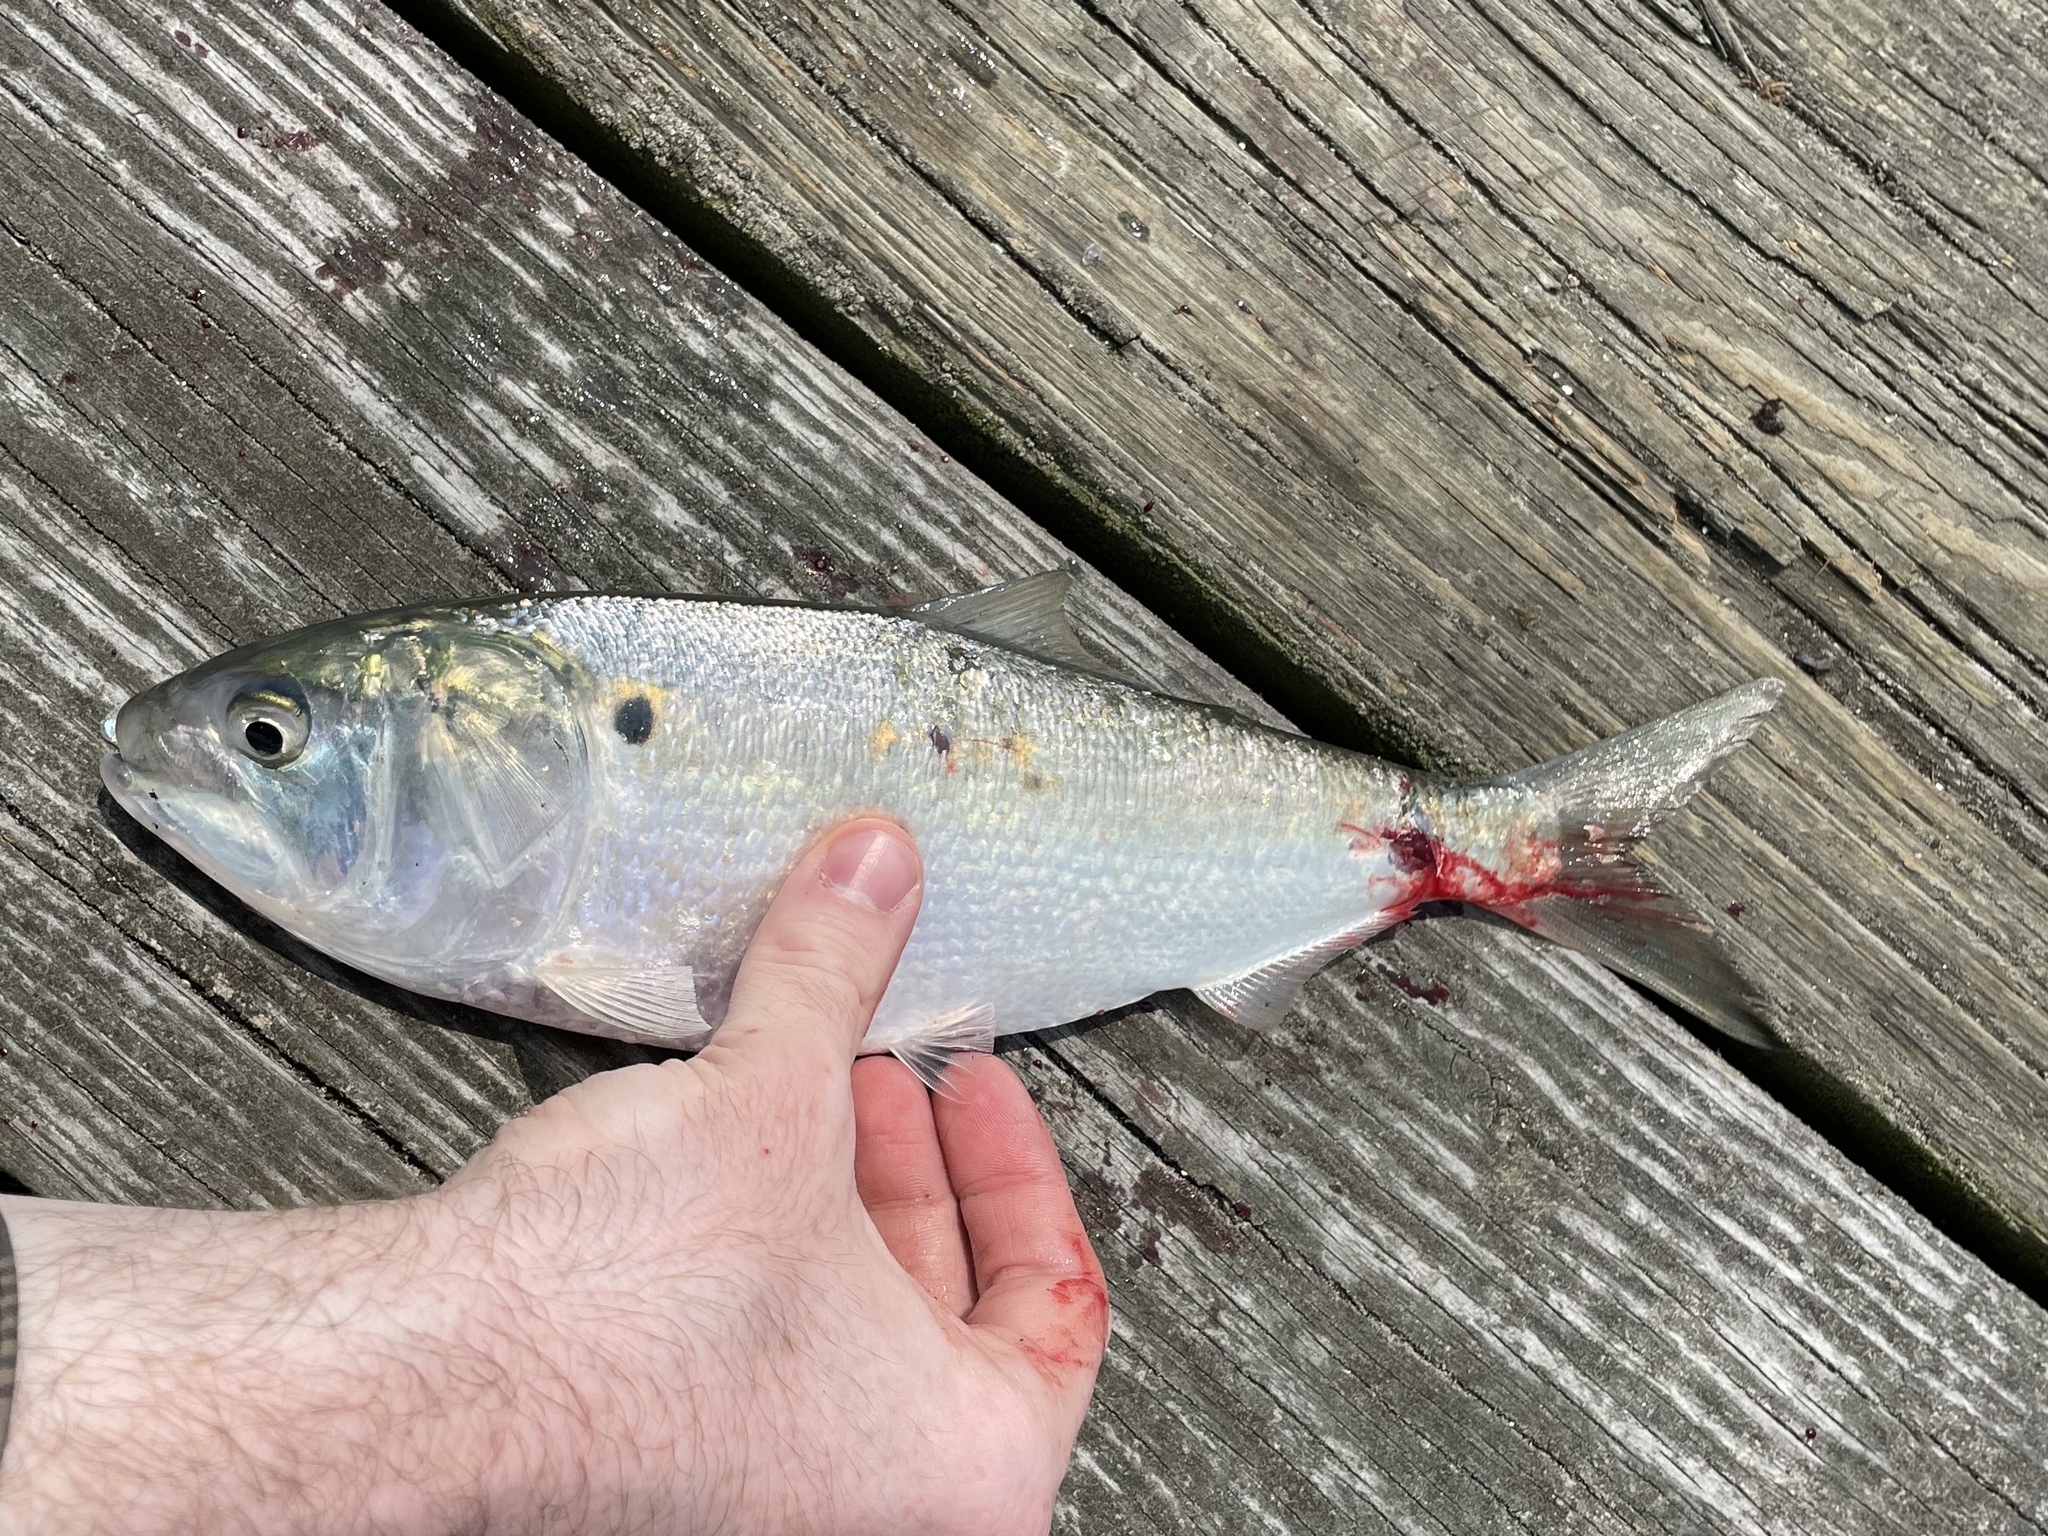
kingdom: Animalia
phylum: Chordata
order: Clupeiformes
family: Clupeidae
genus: Brevoortia
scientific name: Brevoortia tyrannus
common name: Atlantic menhaden
